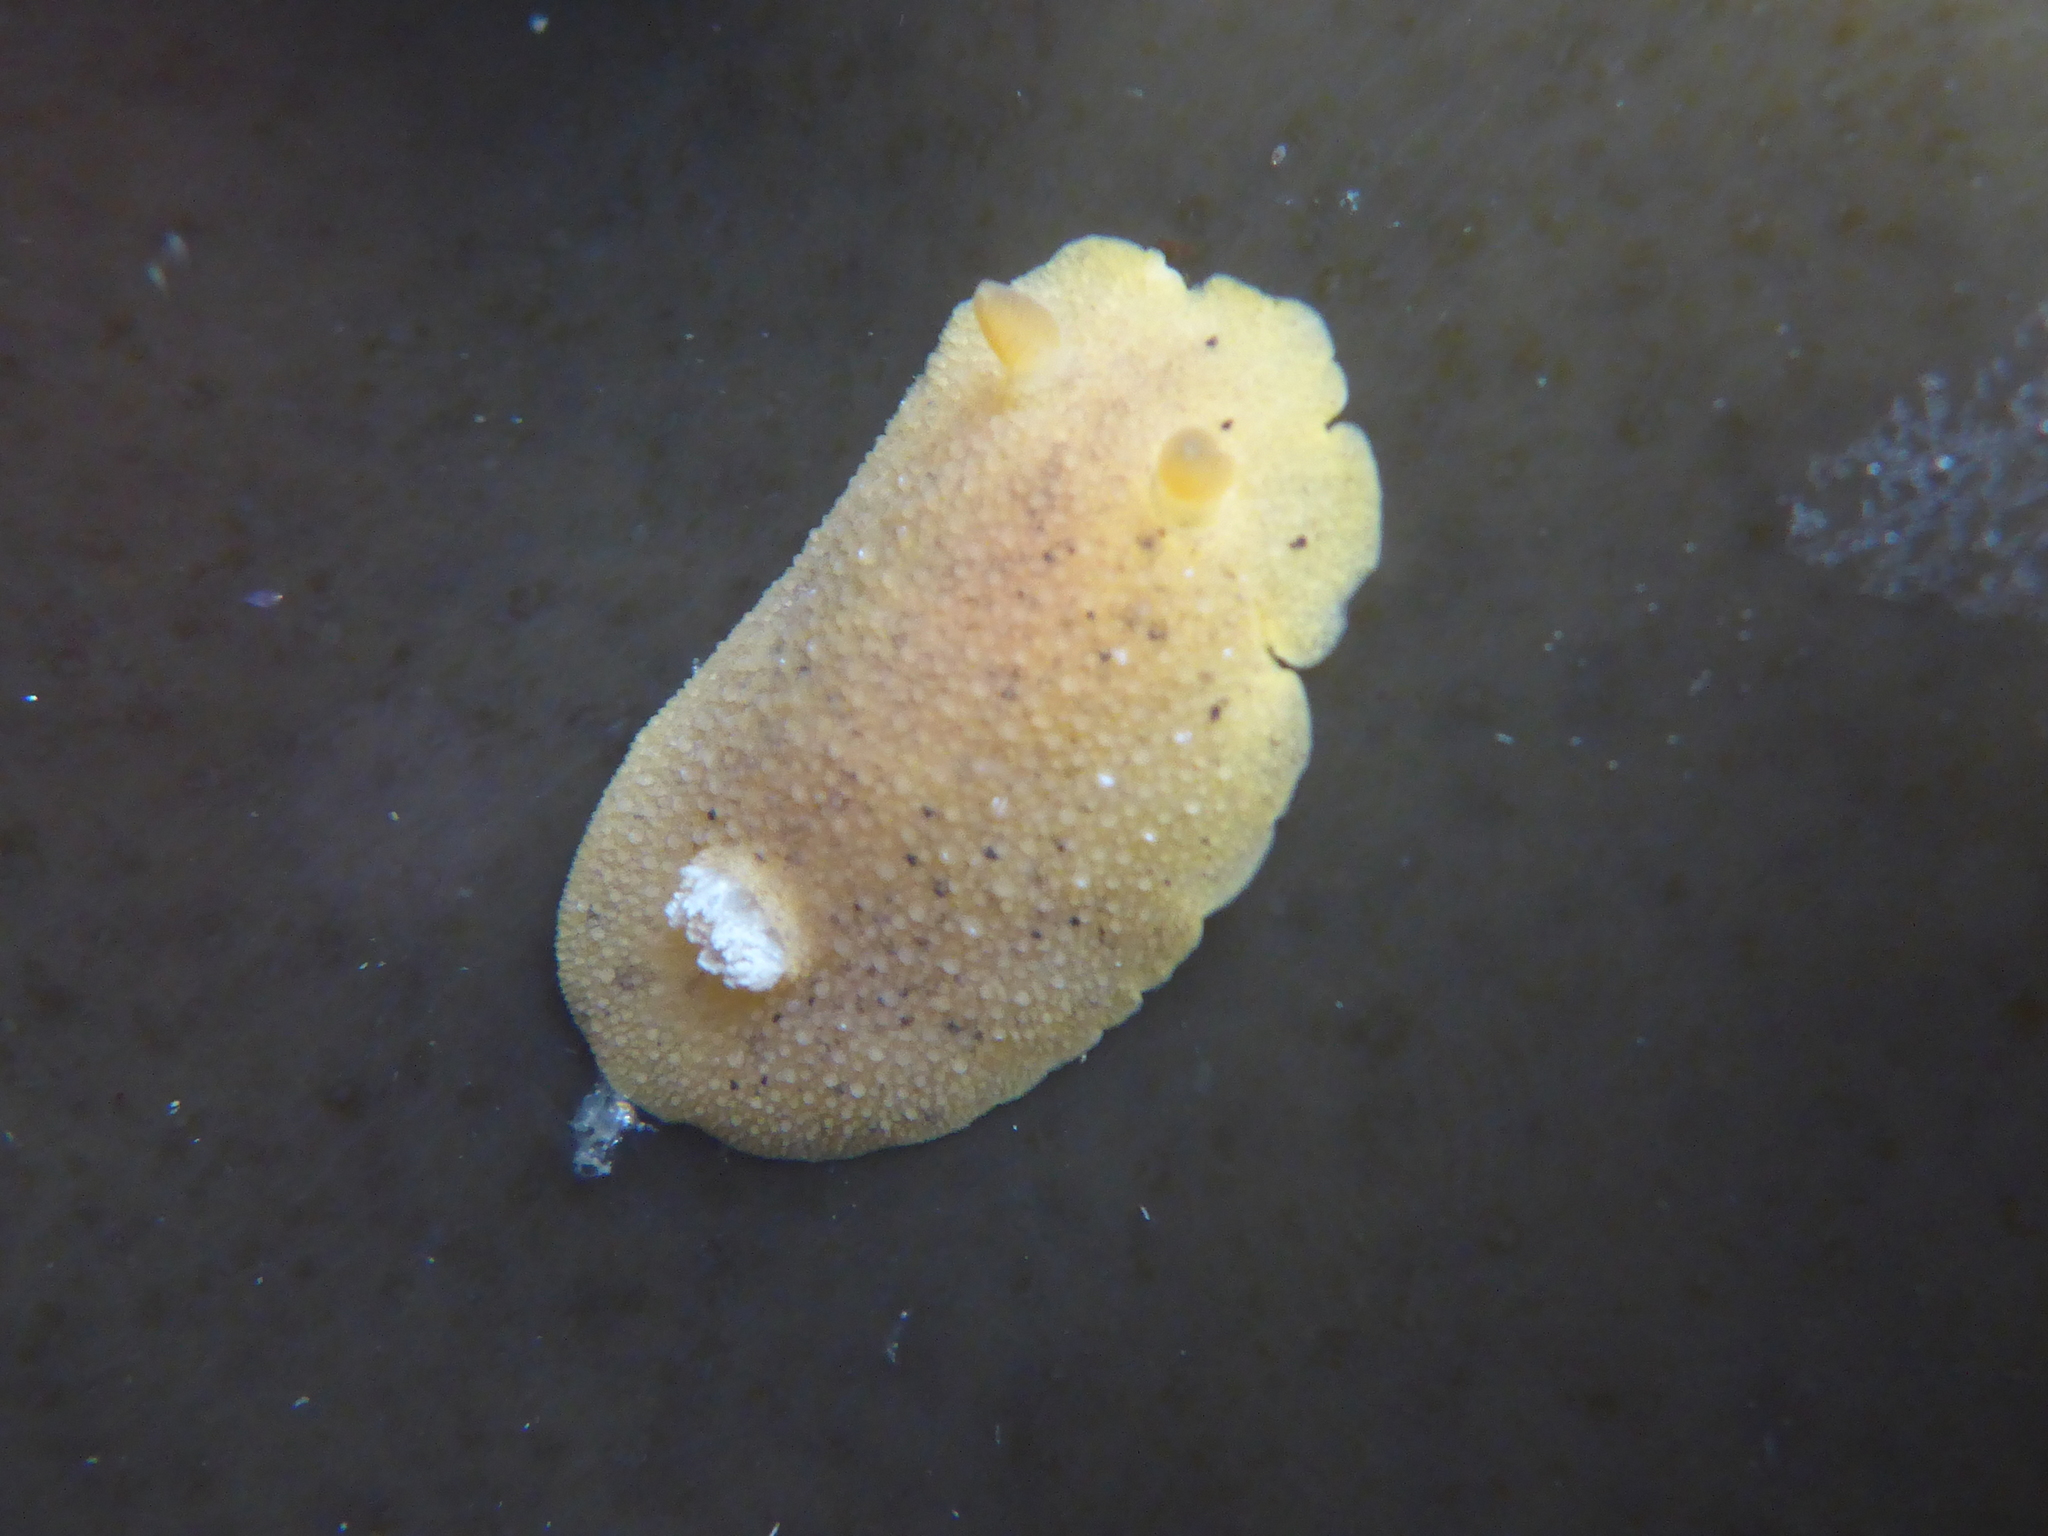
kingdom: Animalia
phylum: Mollusca
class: Gastropoda
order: Nudibranchia
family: Discodorididae
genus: Geitodoris
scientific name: Geitodoris heathi
